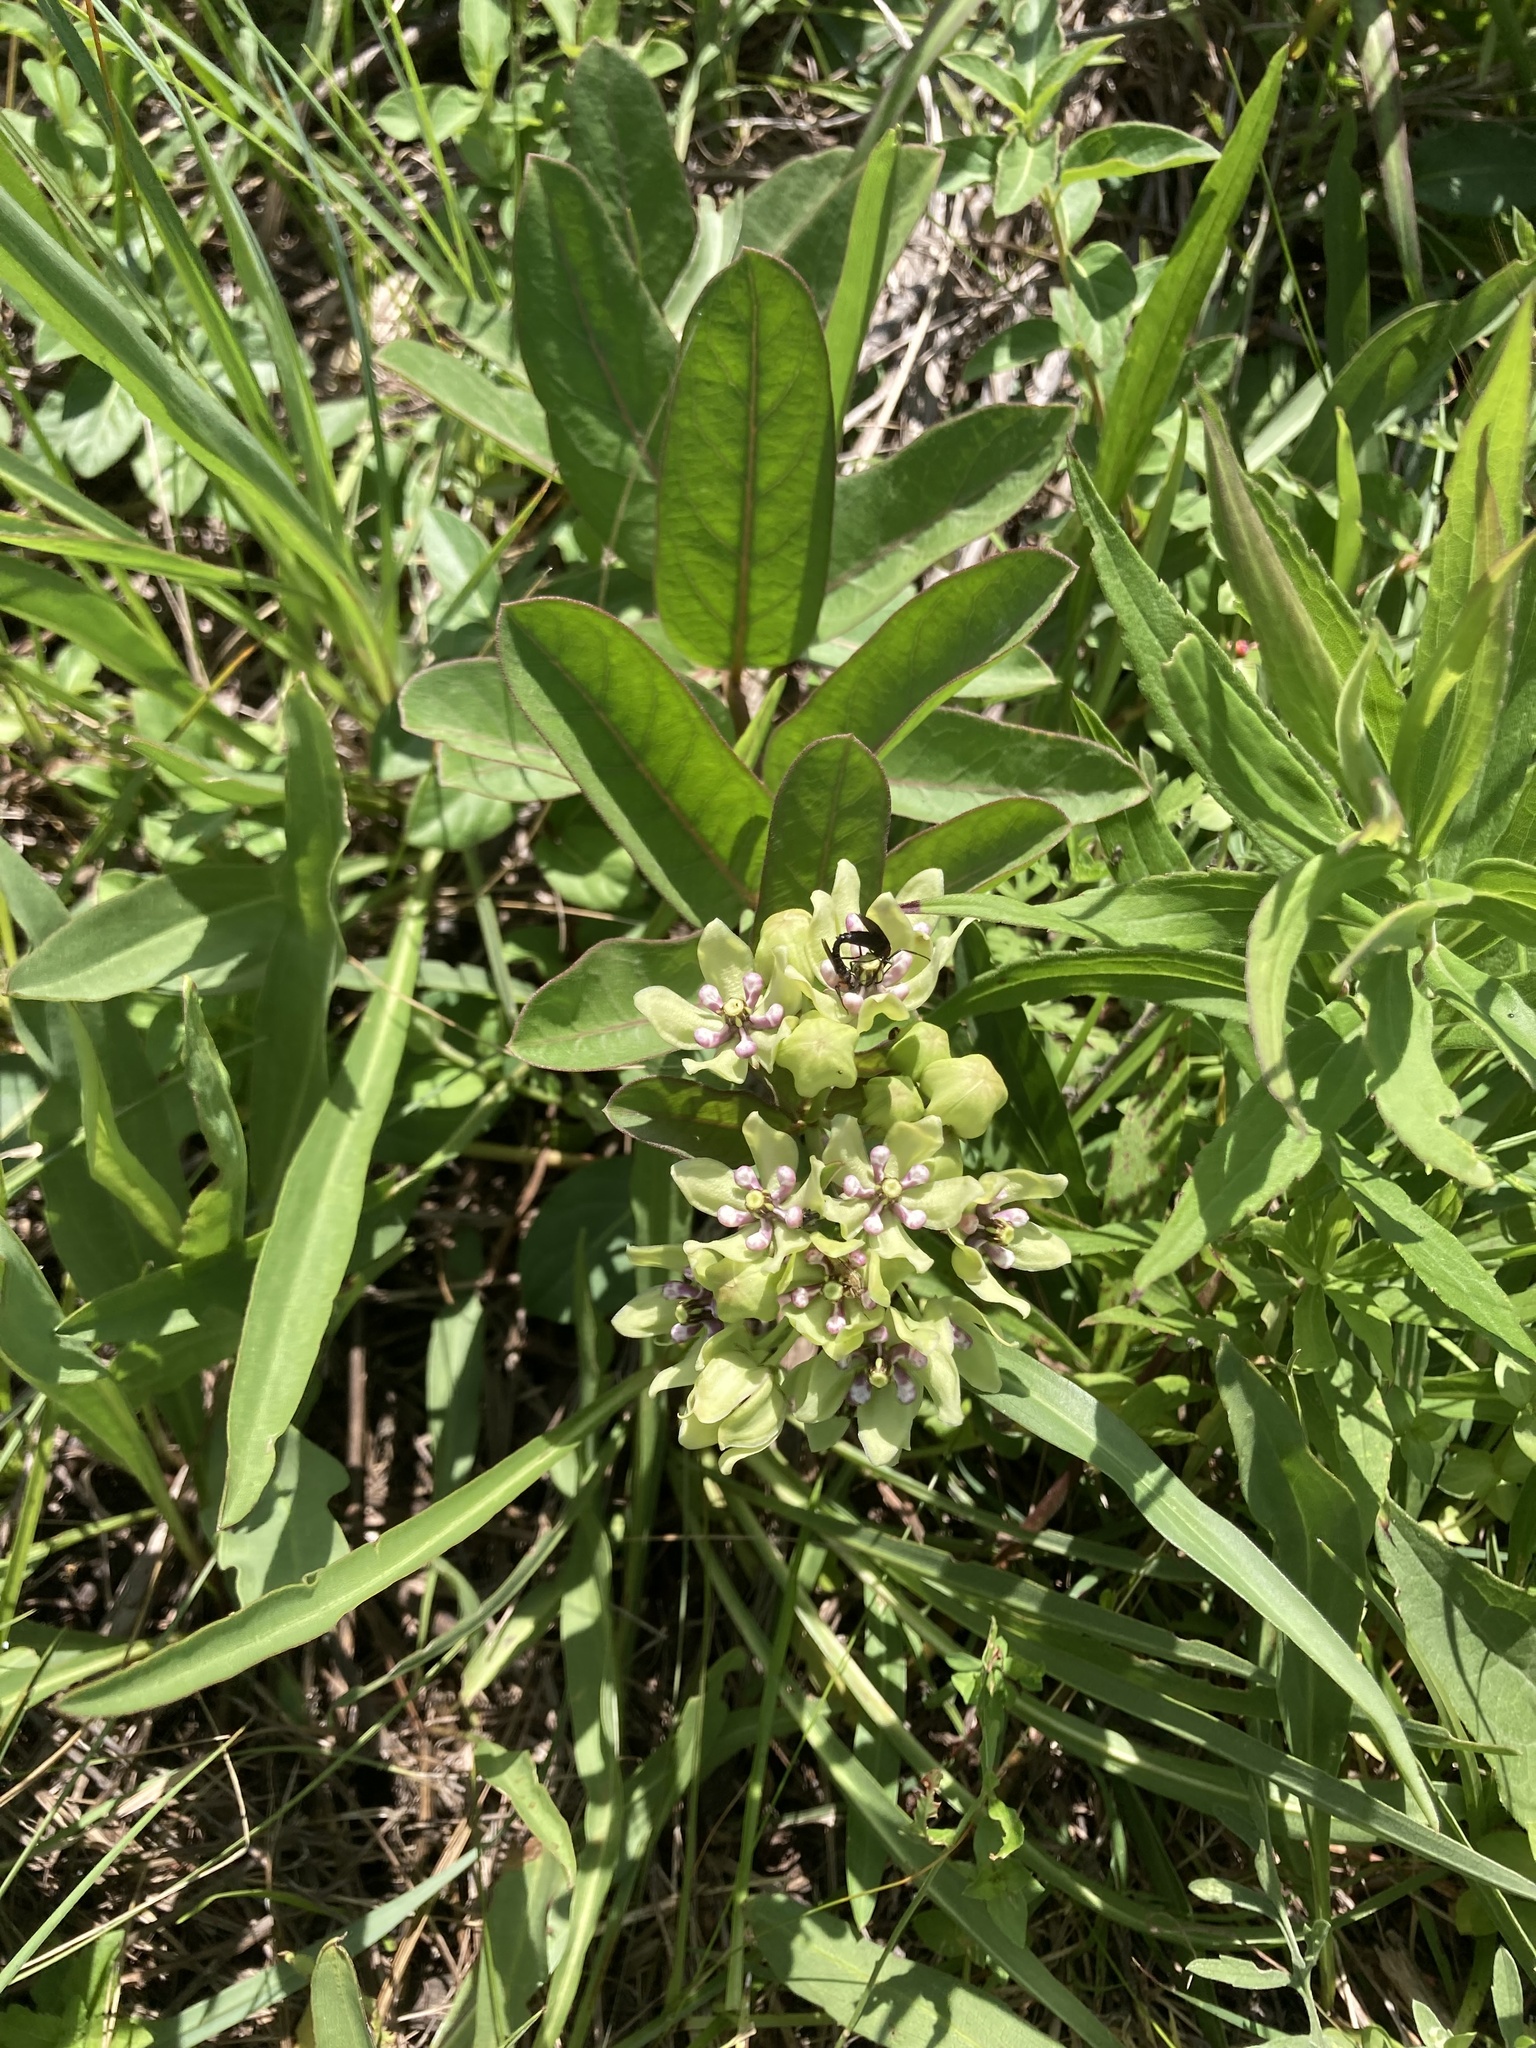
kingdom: Plantae
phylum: Tracheophyta
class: Magnoliopsida
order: Gentianales
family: Apocynaceae
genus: Asclepias
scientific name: Asclepias viridis
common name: Antelope-horns
